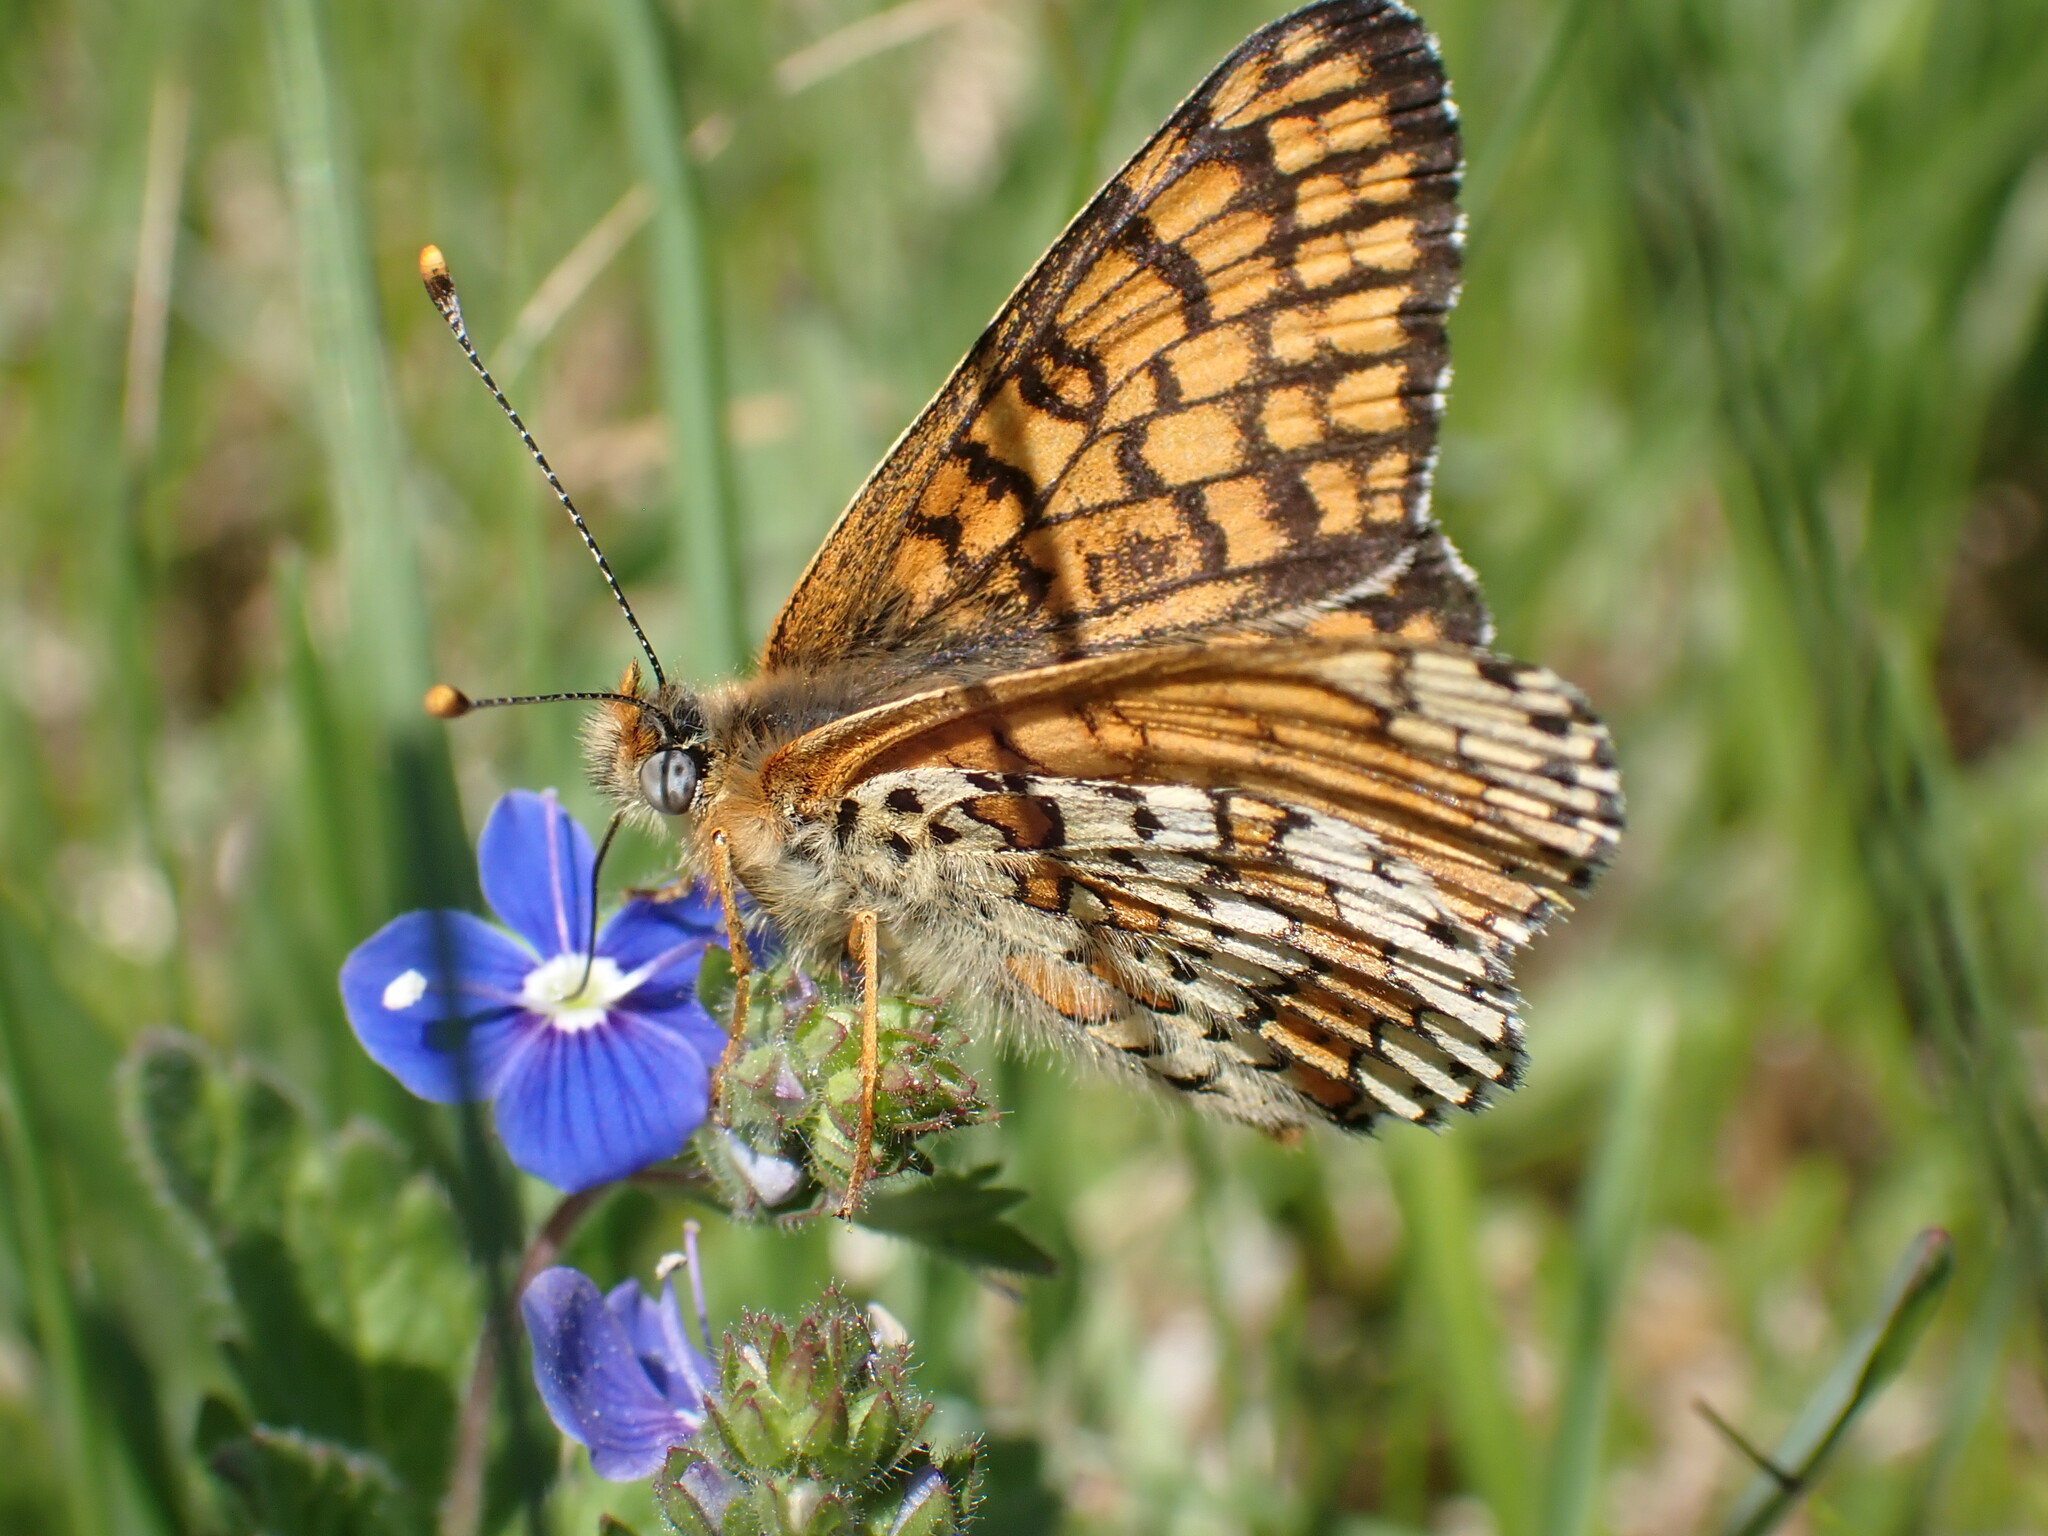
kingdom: Animalia
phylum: Arthropoda
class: Insecta
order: Lepidoptera
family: Nymphalidae
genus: Melitaea
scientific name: Melitaea cinxia
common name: Glanville fritillary
